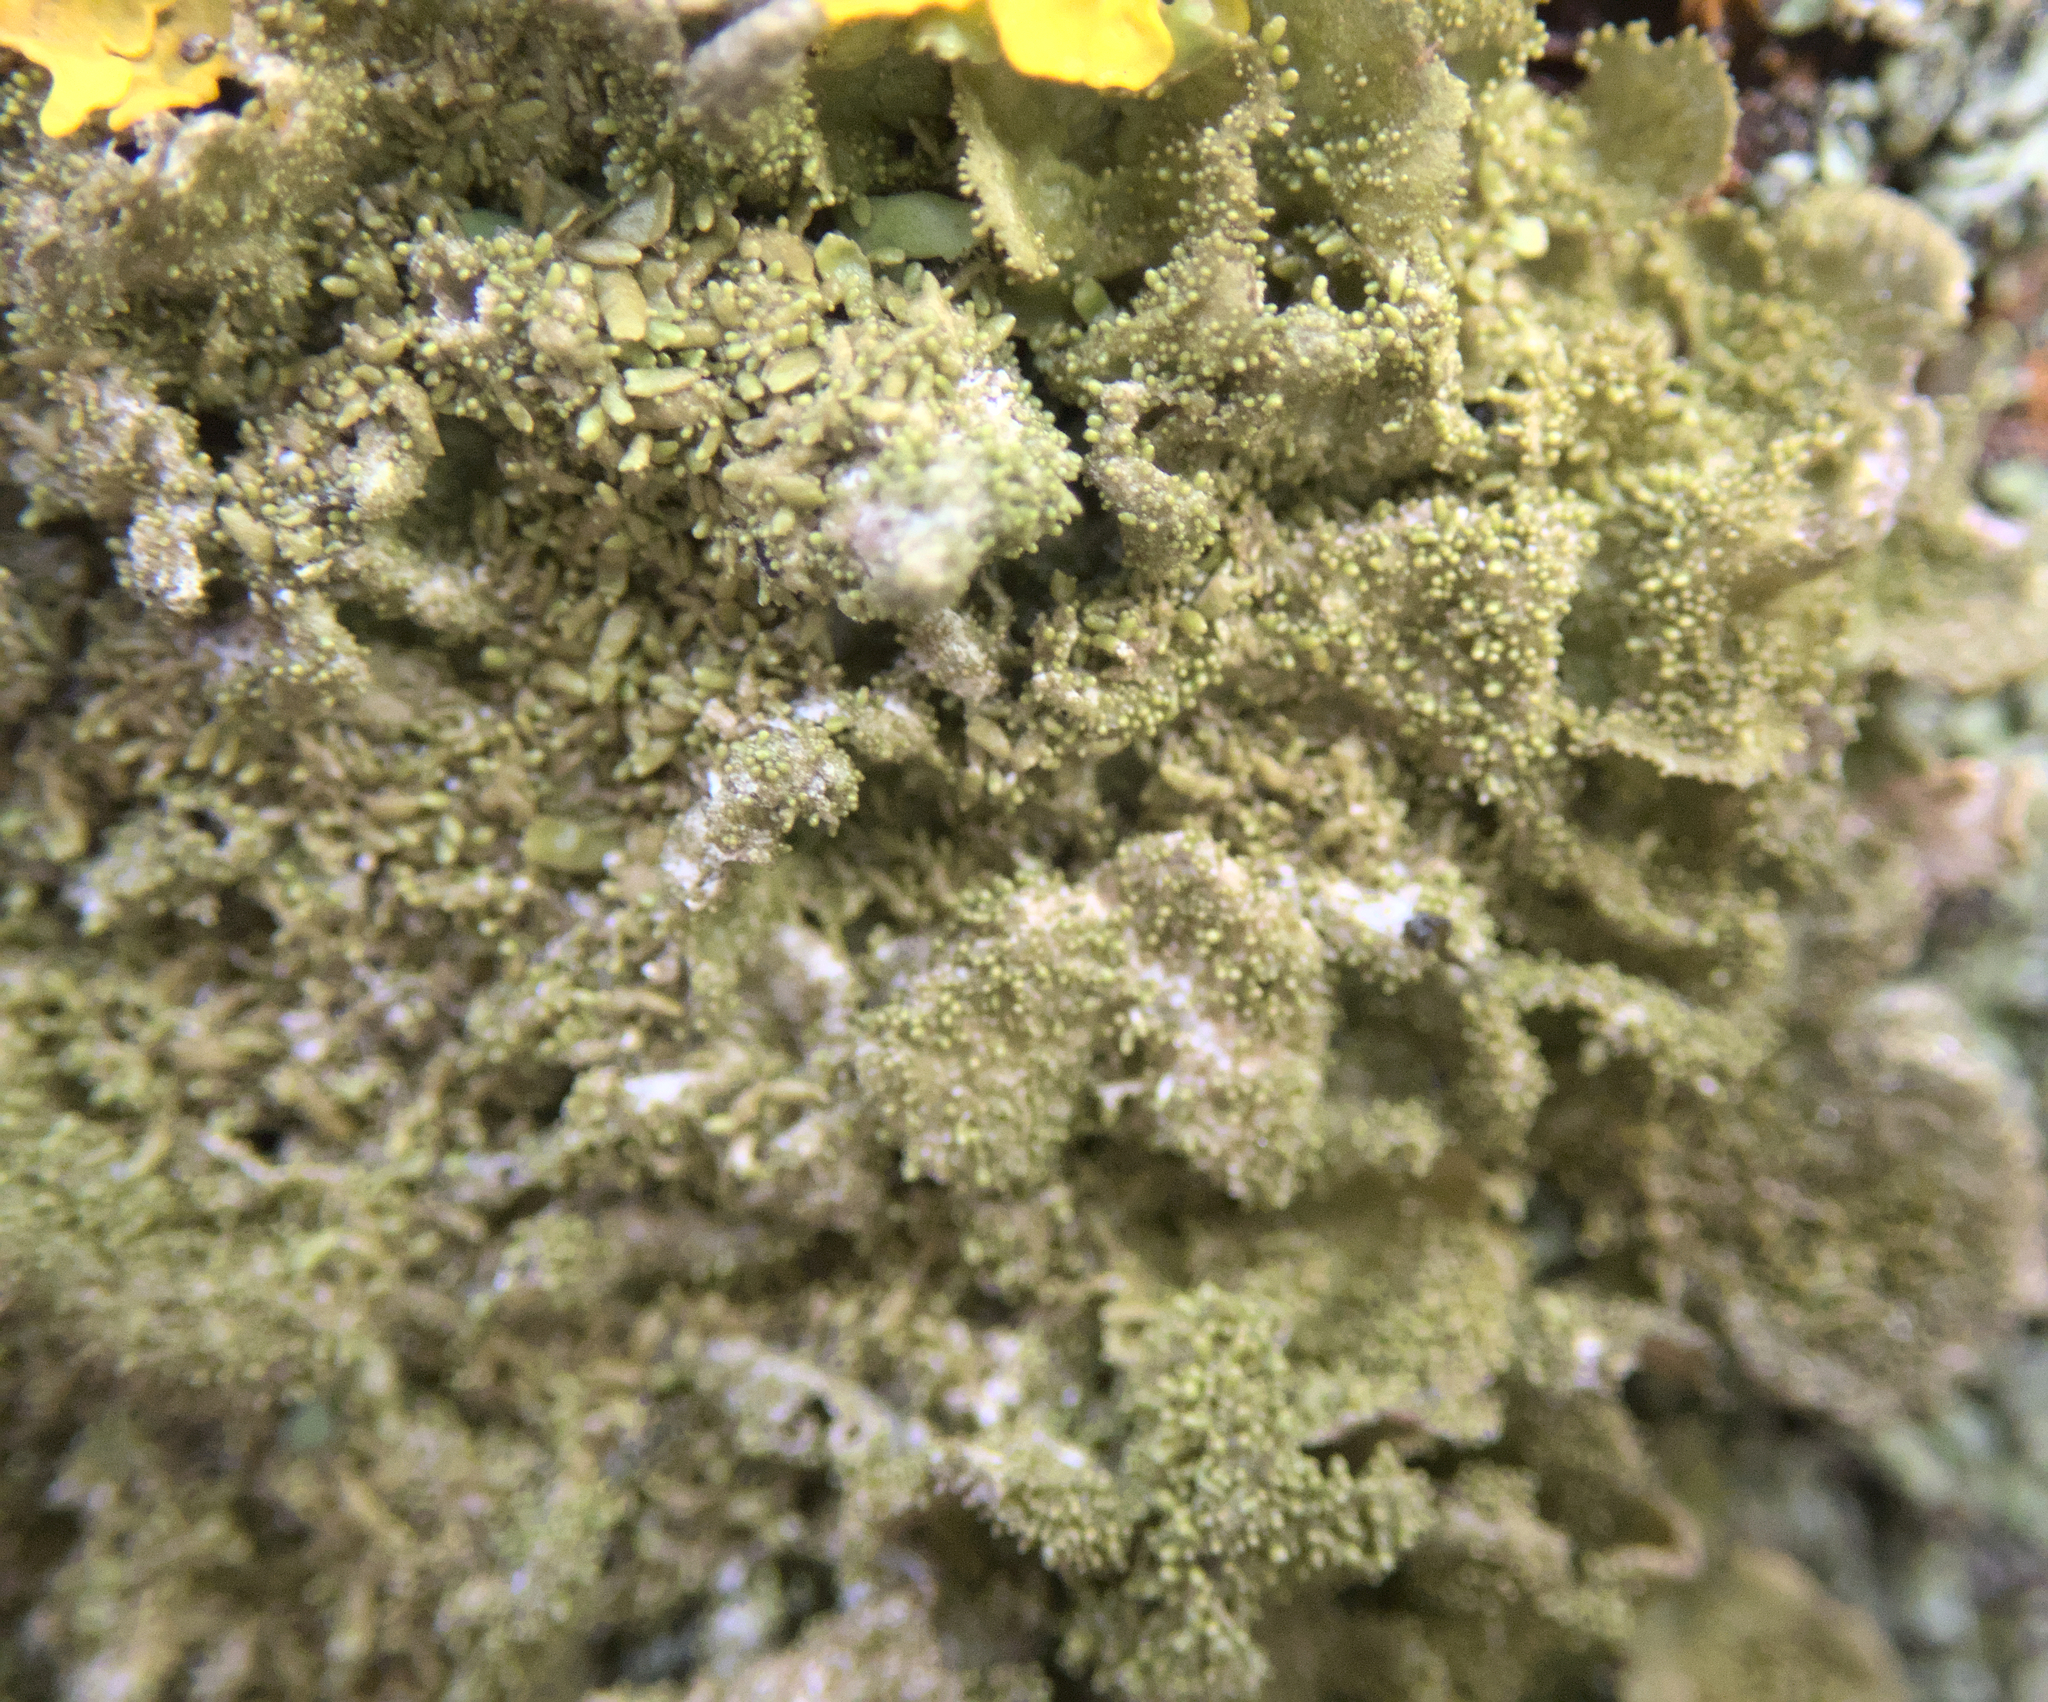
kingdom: Fungi
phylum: Ascomycota
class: Lecanoromycetes
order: Lecanorales
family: Parmeliaceae
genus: Melanohalea
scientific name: Melanohalea exasperatula
